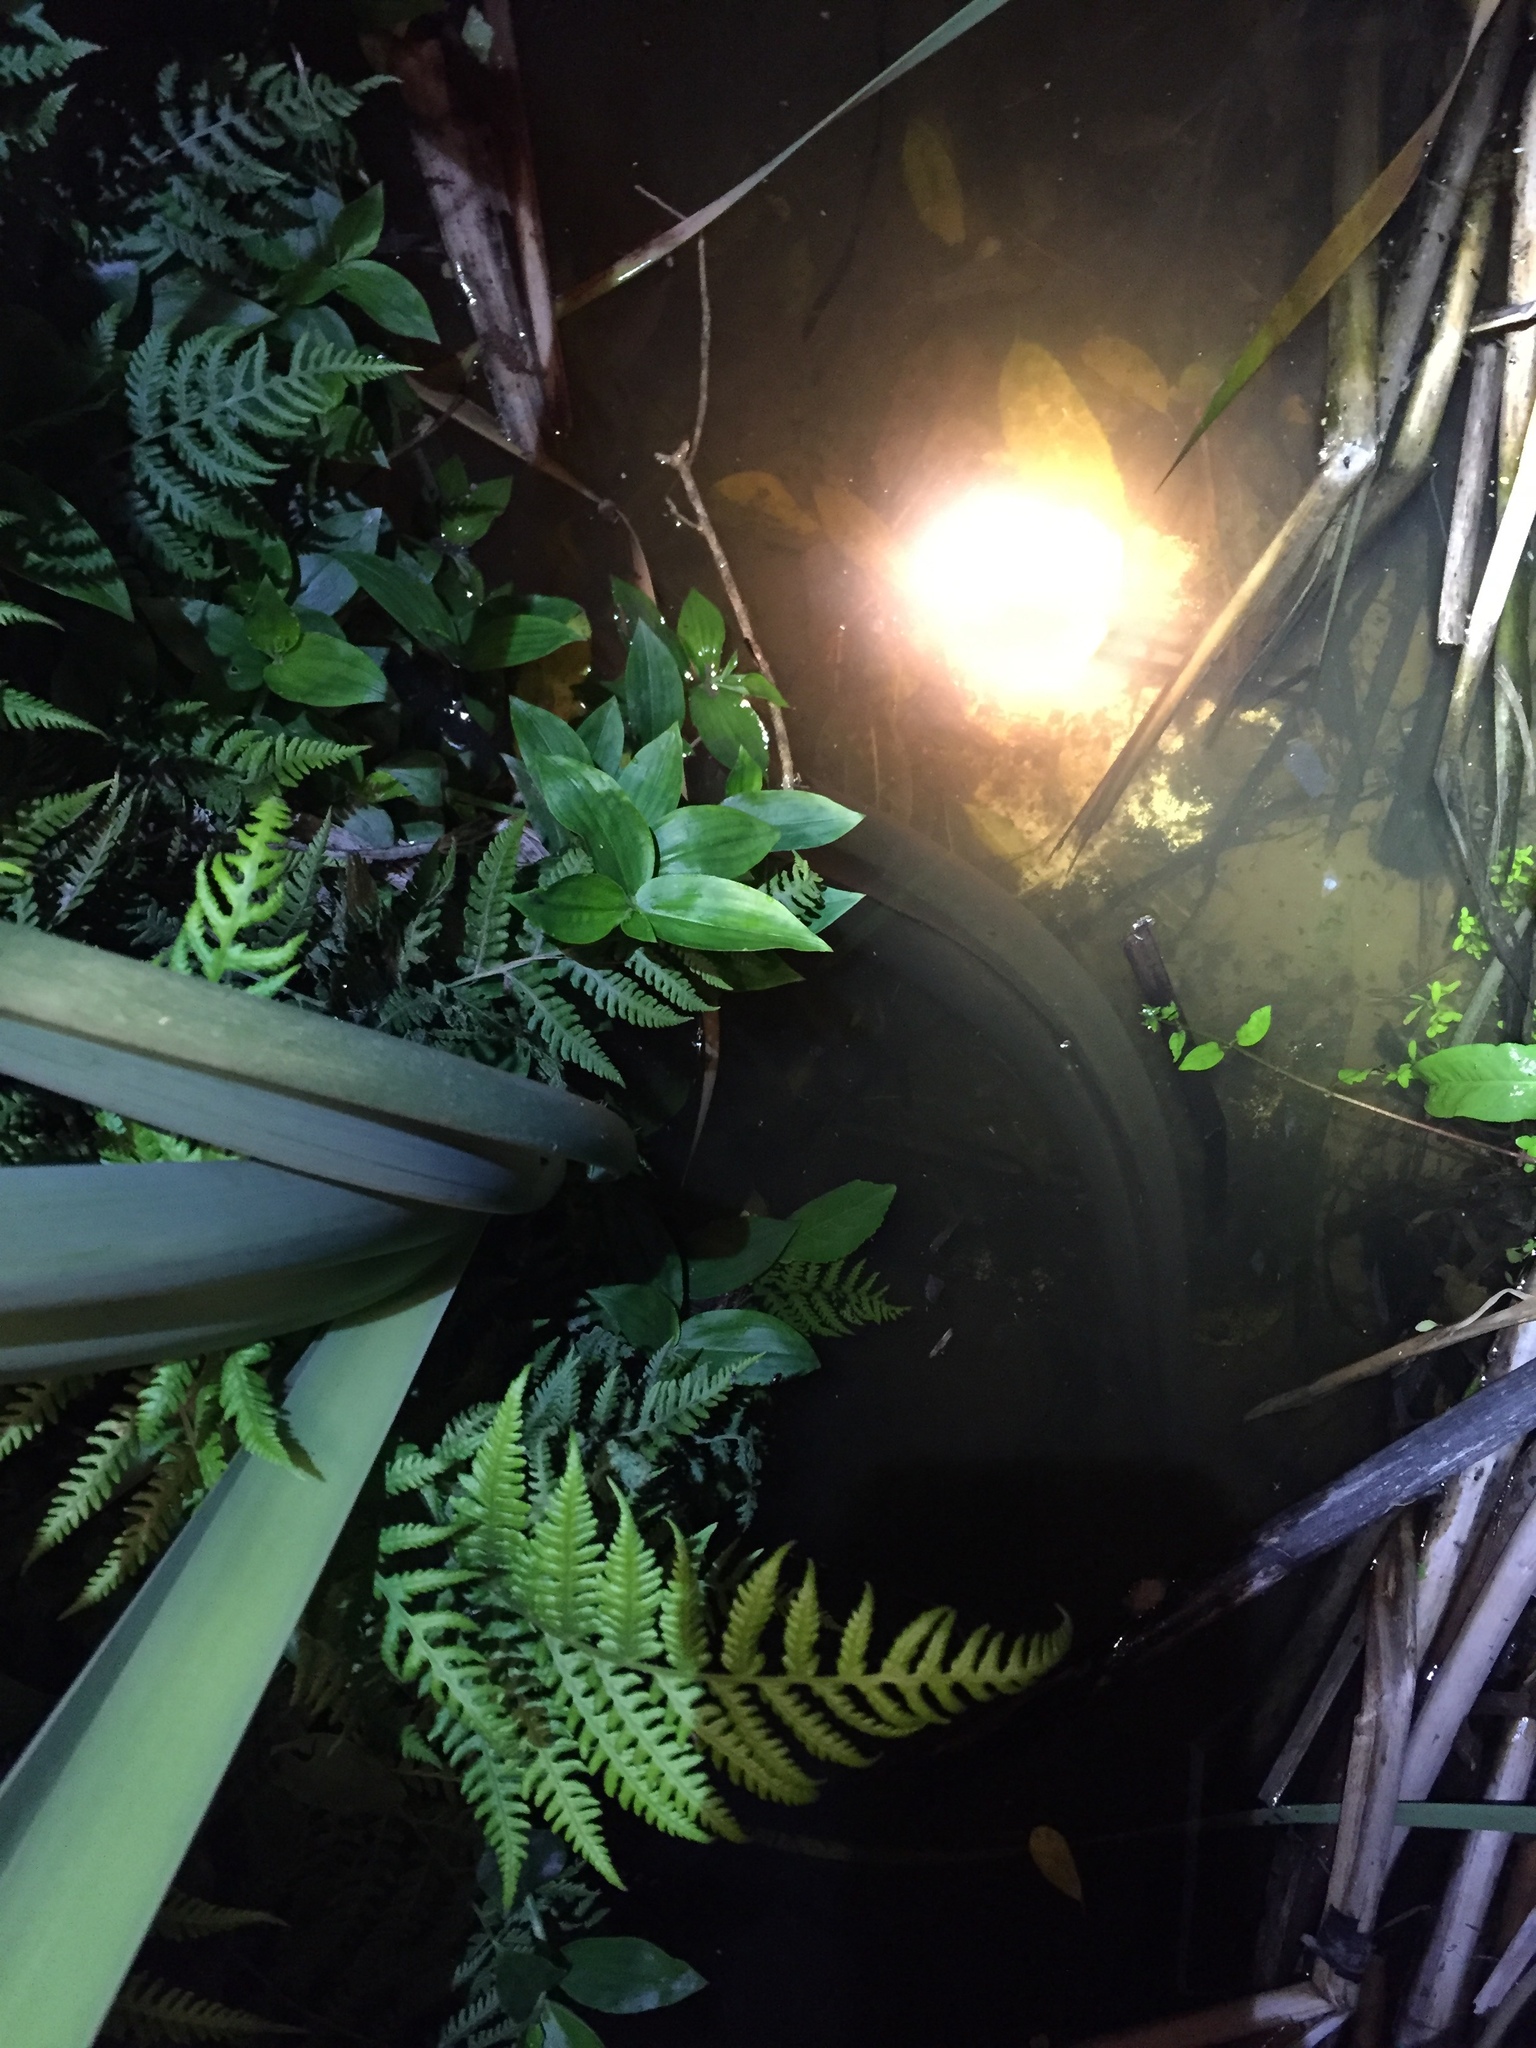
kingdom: Animalia
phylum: Chordata
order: Anguilliformes
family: Anguillidae
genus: Anguilla
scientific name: Anguilla dieffenbachii
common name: New zealand longfin eel
